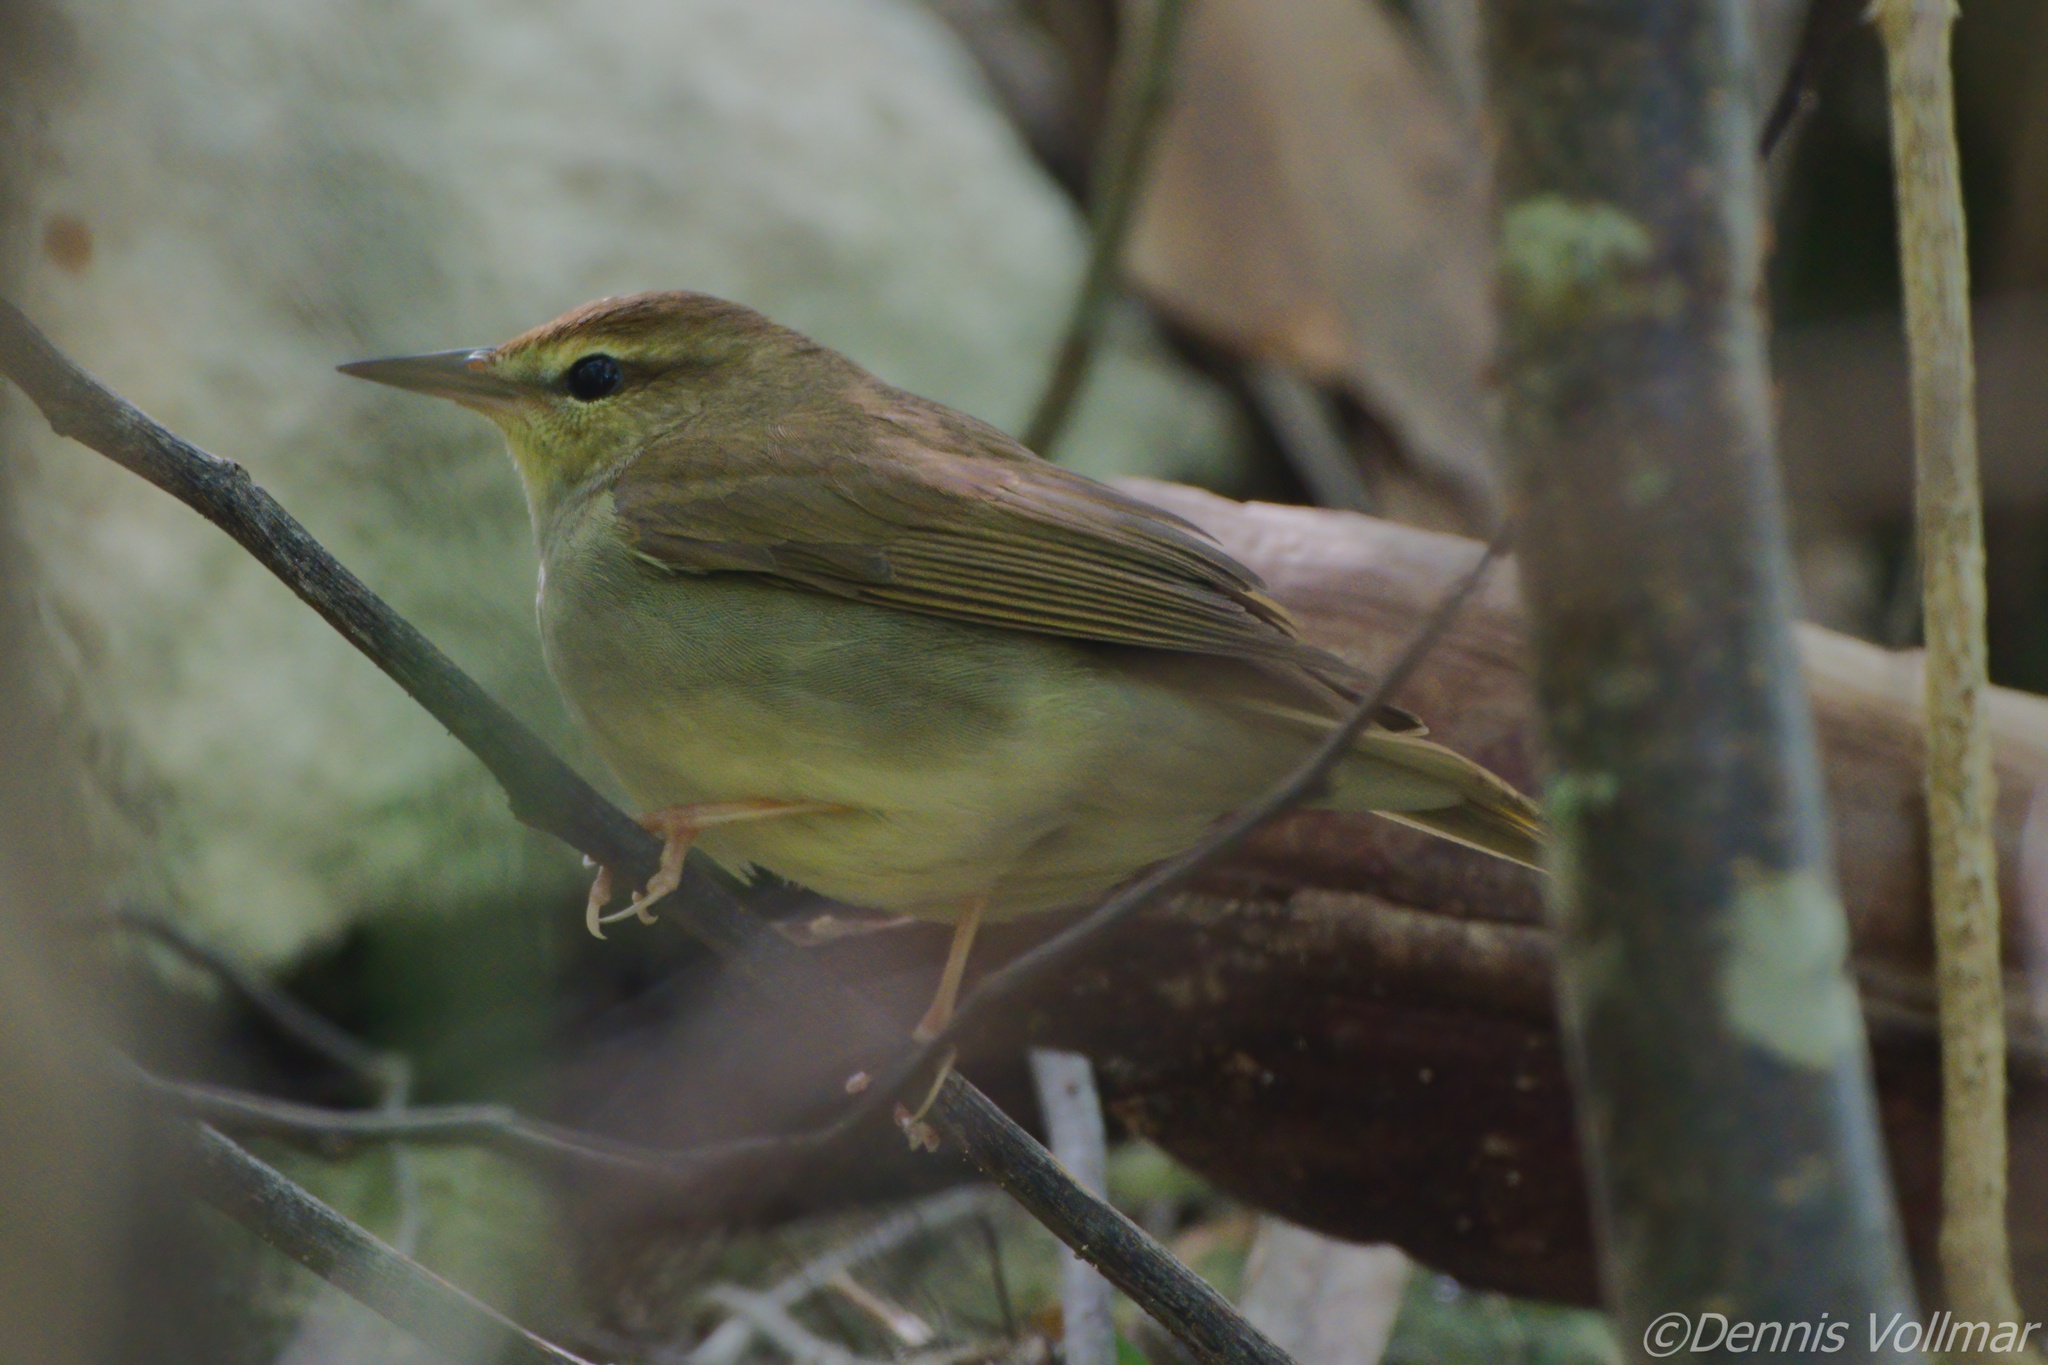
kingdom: Animalia
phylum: Chordata
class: Aves
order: Passeriformes
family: Parulidae
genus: Limnothlypis
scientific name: Limnothlypis swainsonii
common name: Swainson's warbler
